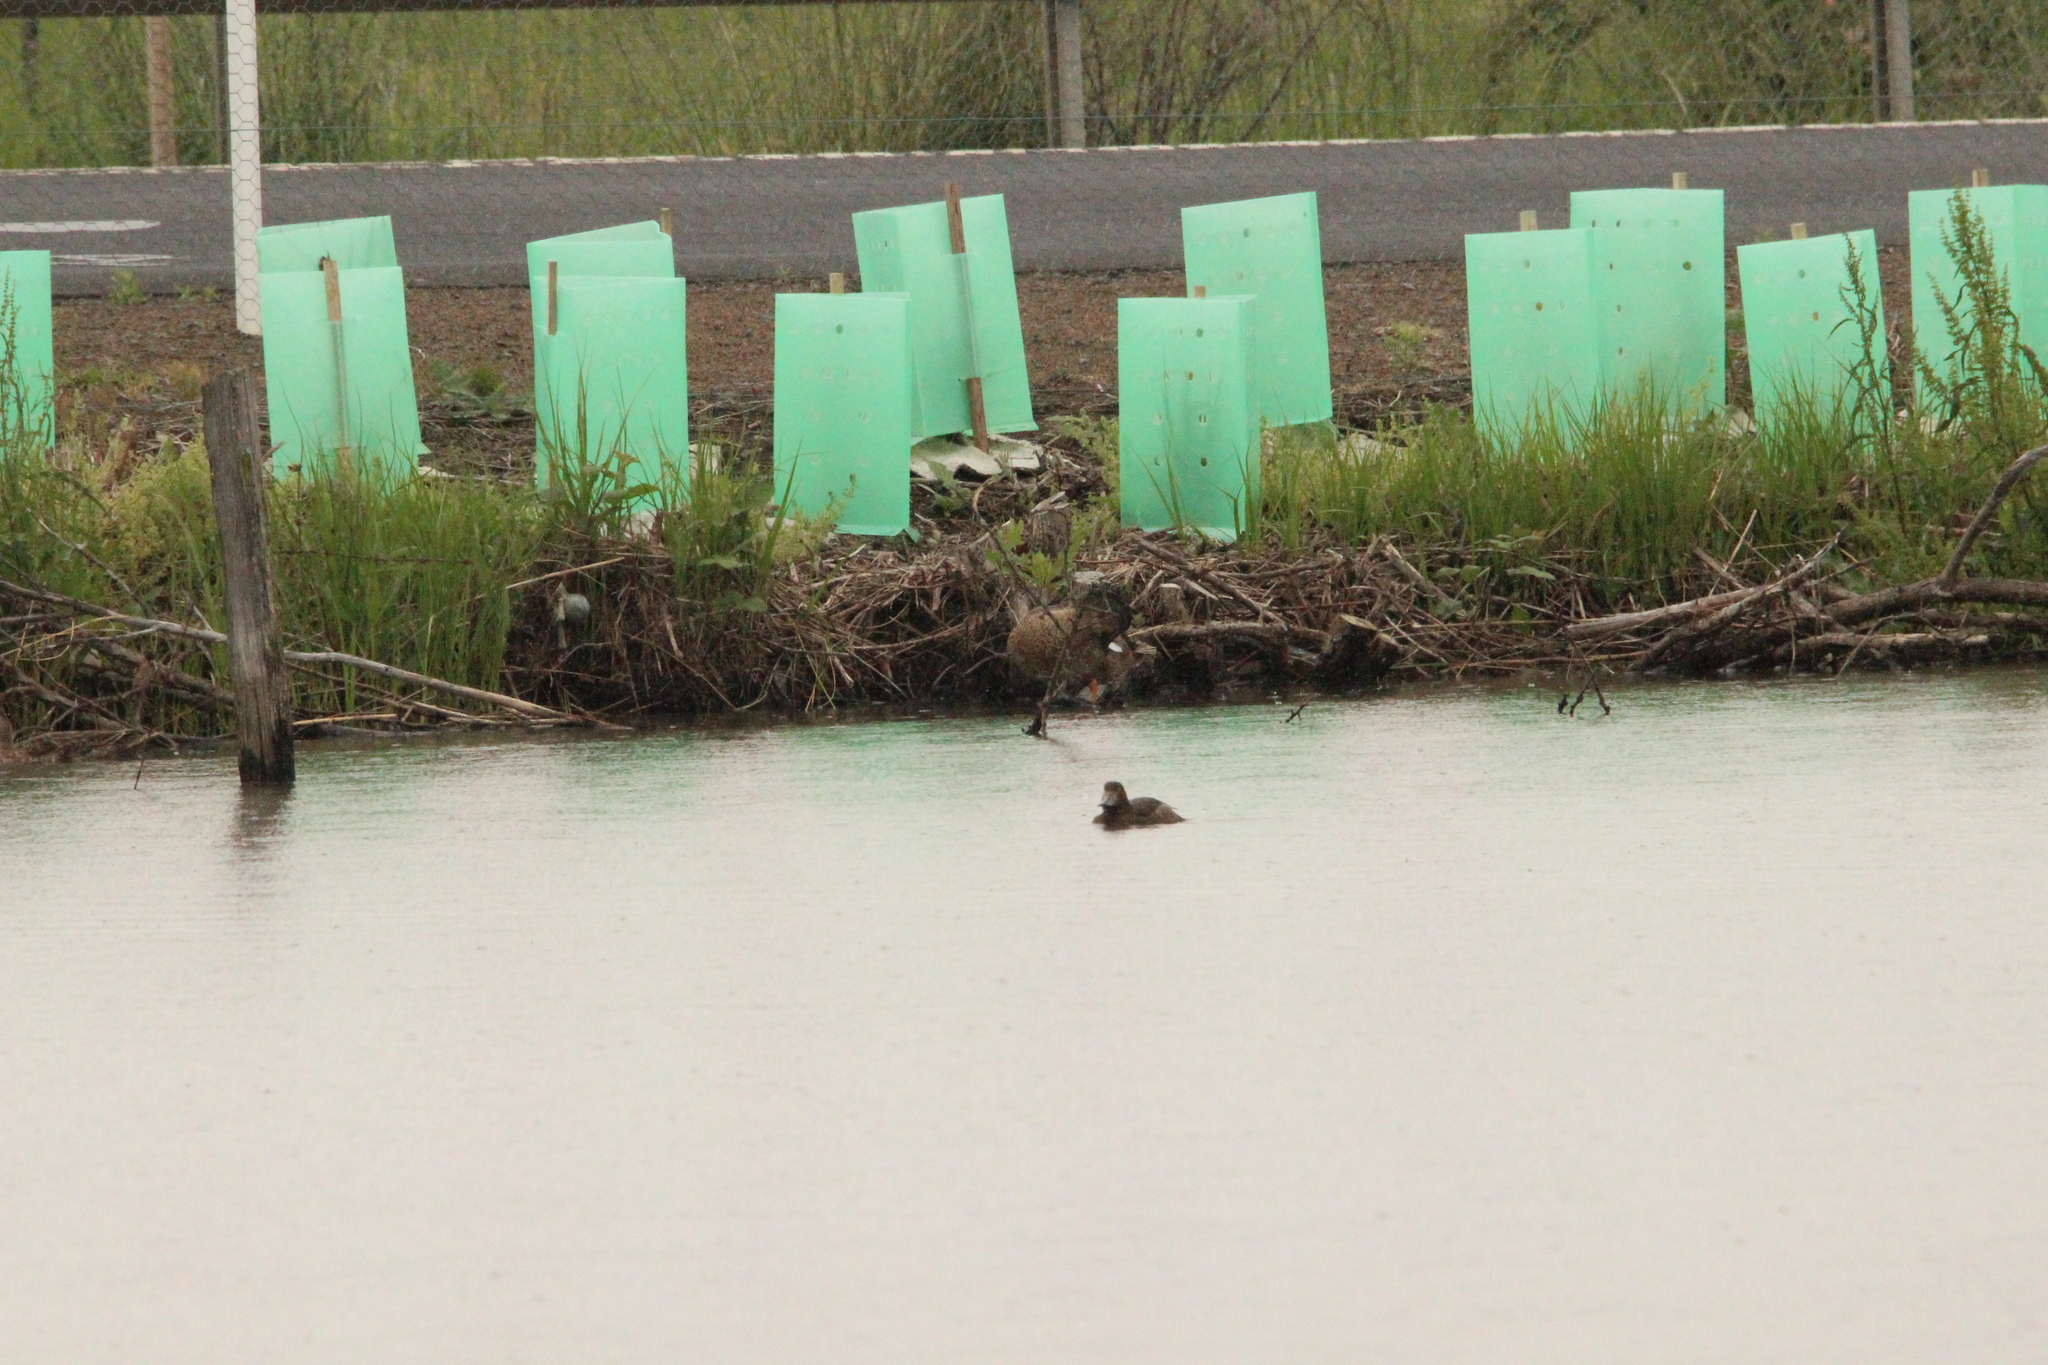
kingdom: Animalia
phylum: Chordata
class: Aves
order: Anseriformes
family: Anatidae
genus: Aythya
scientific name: Aythya novaeseelandiae
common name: New zealand scaup
